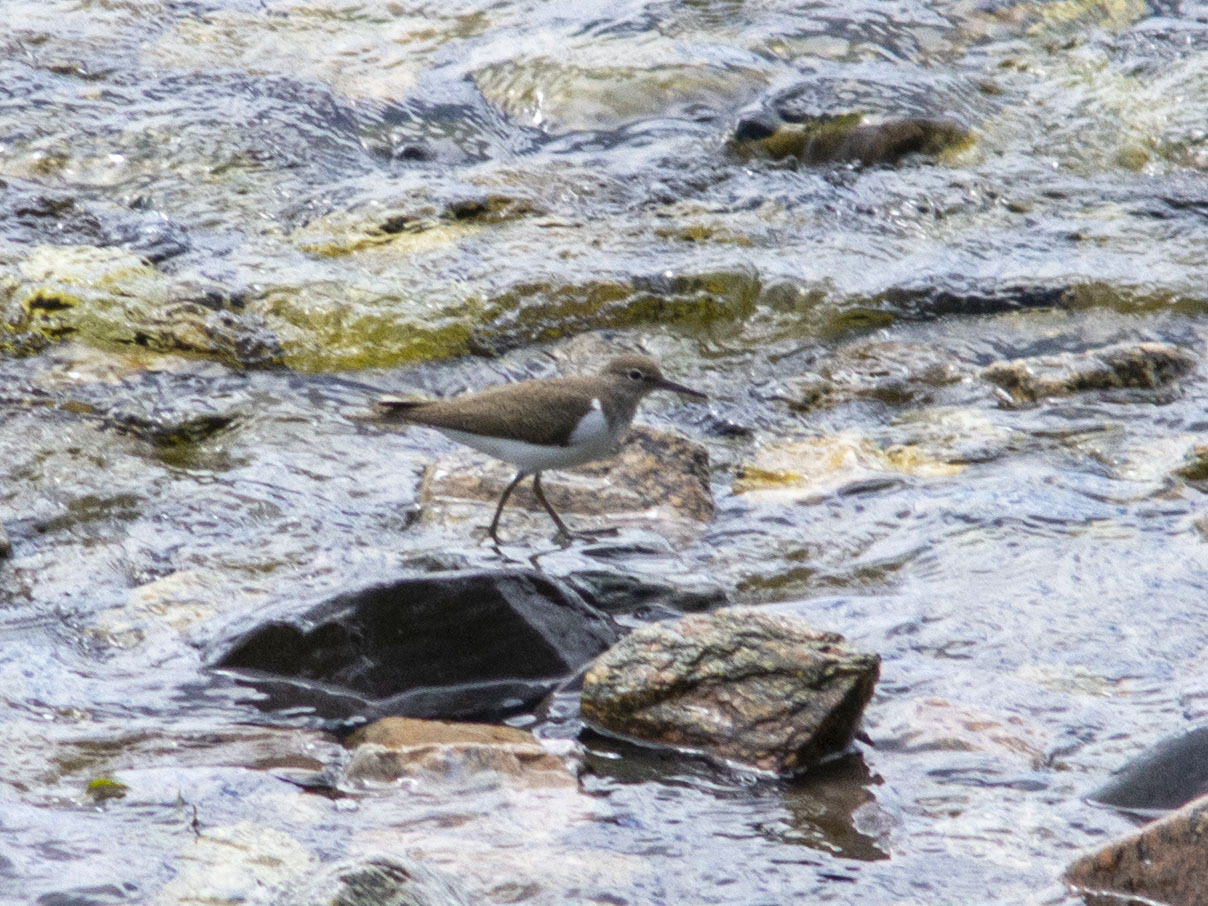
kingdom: Animalia
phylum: Chordata
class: Aves
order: Charadriiformes
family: Scolopacidae
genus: Actitis
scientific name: Actitis hypoleucos
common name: Common sandpiper
